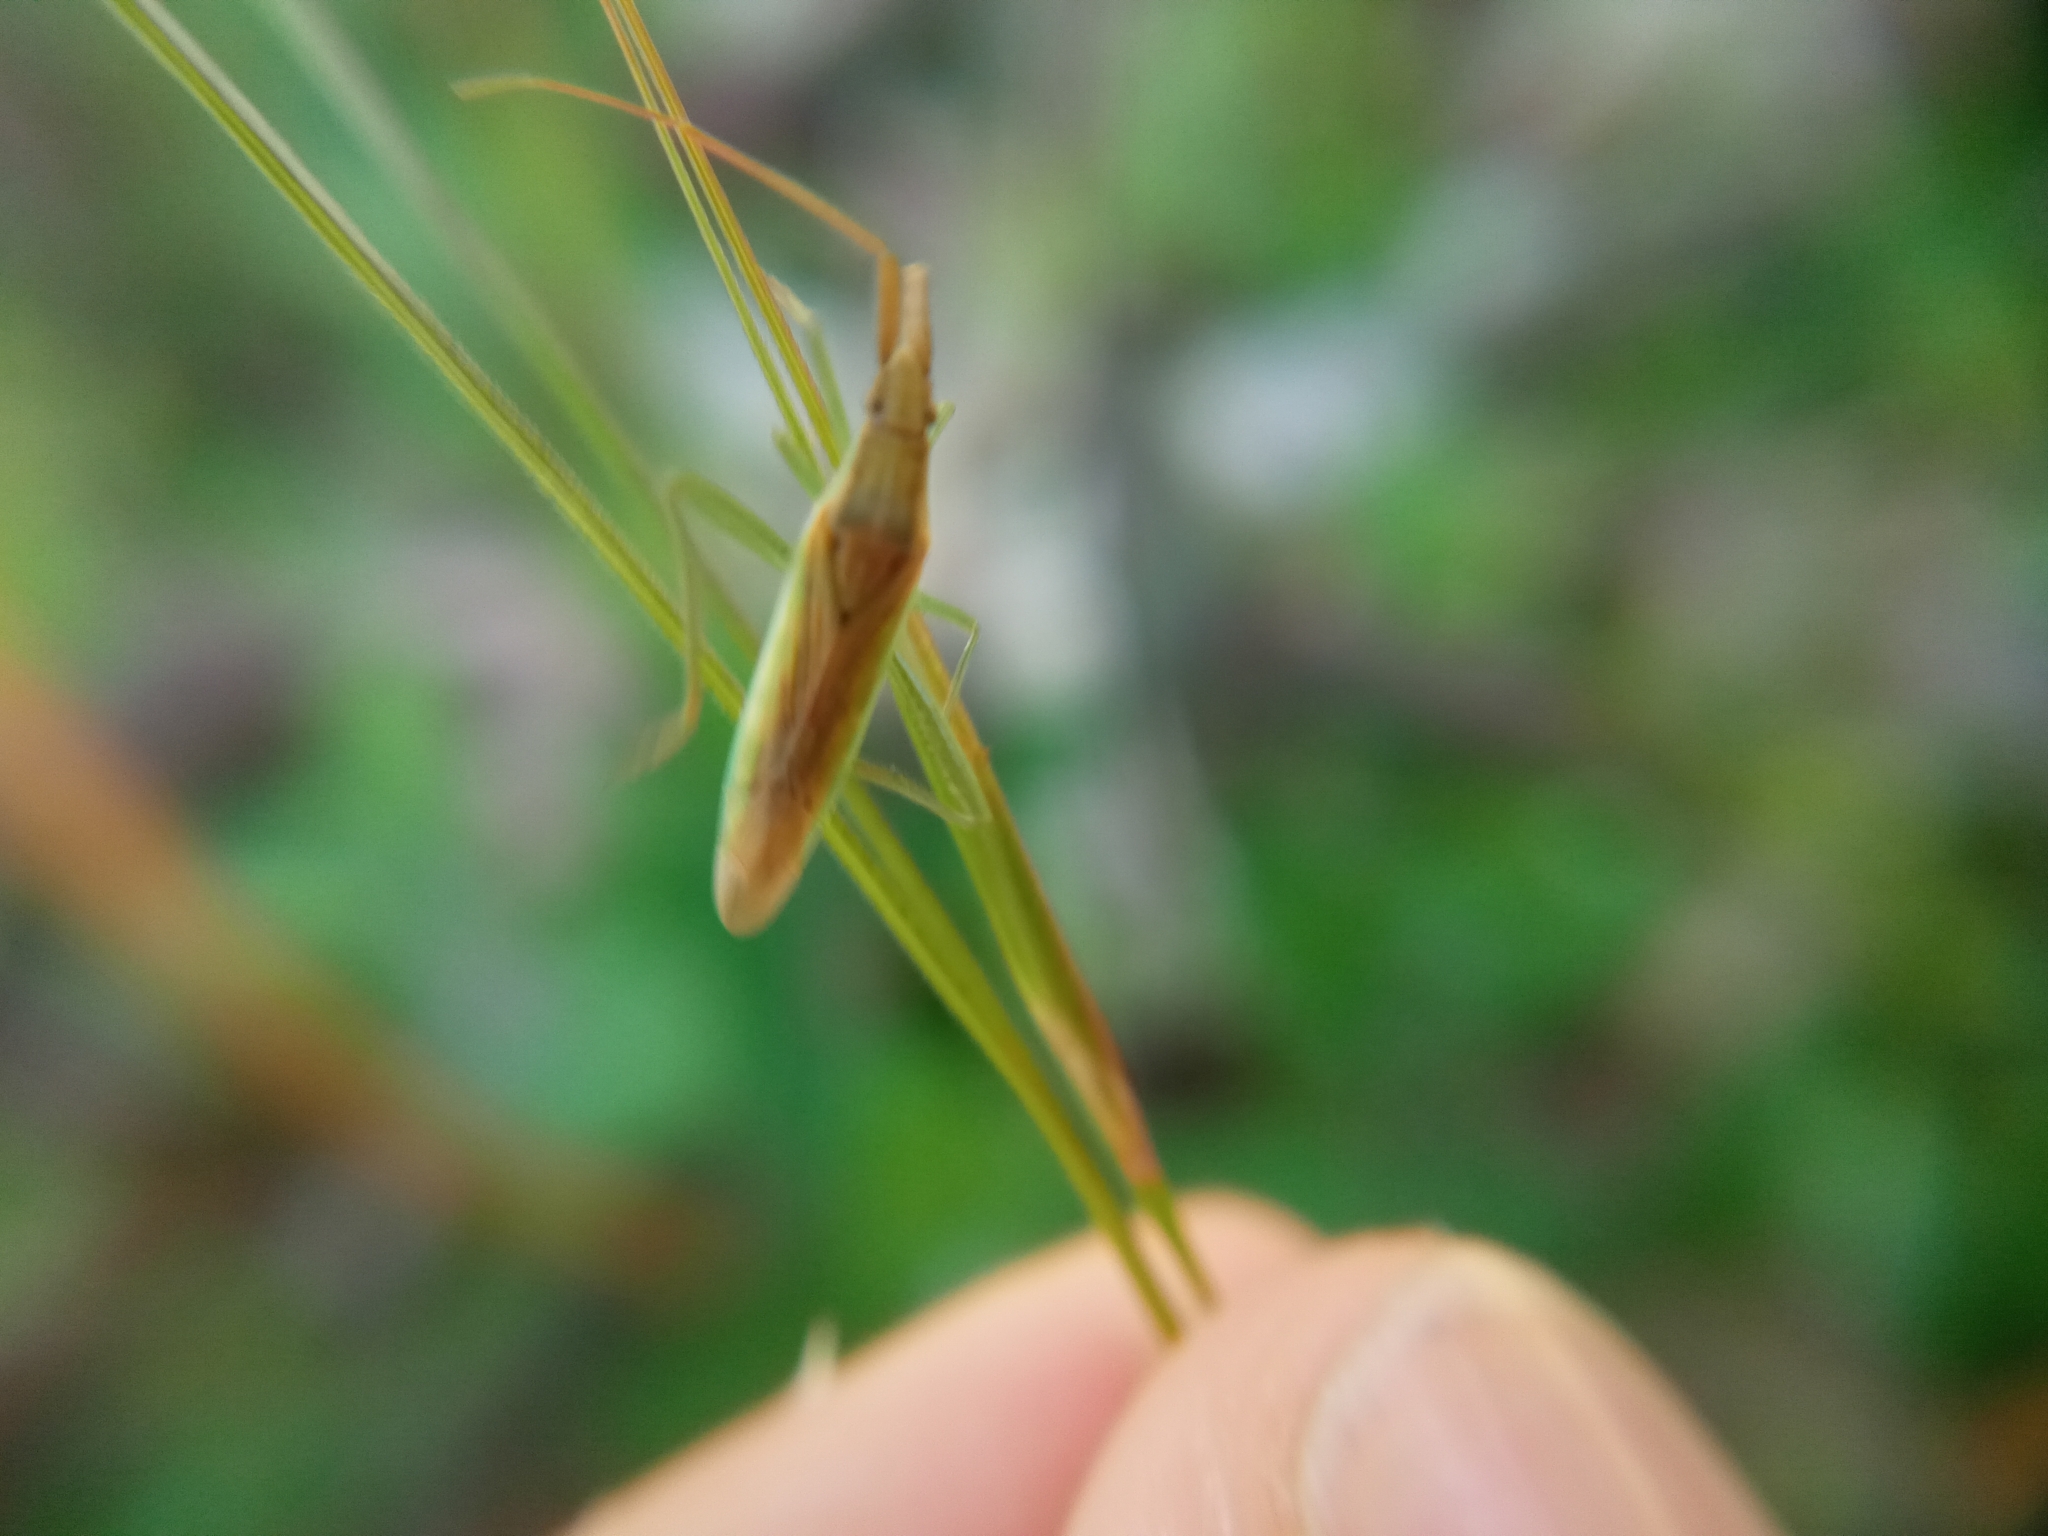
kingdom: Animalia
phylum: Arthropoda
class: Insecta
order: Hemiptera
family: Miridae
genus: Stenodema
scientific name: Stenodema laevigata
